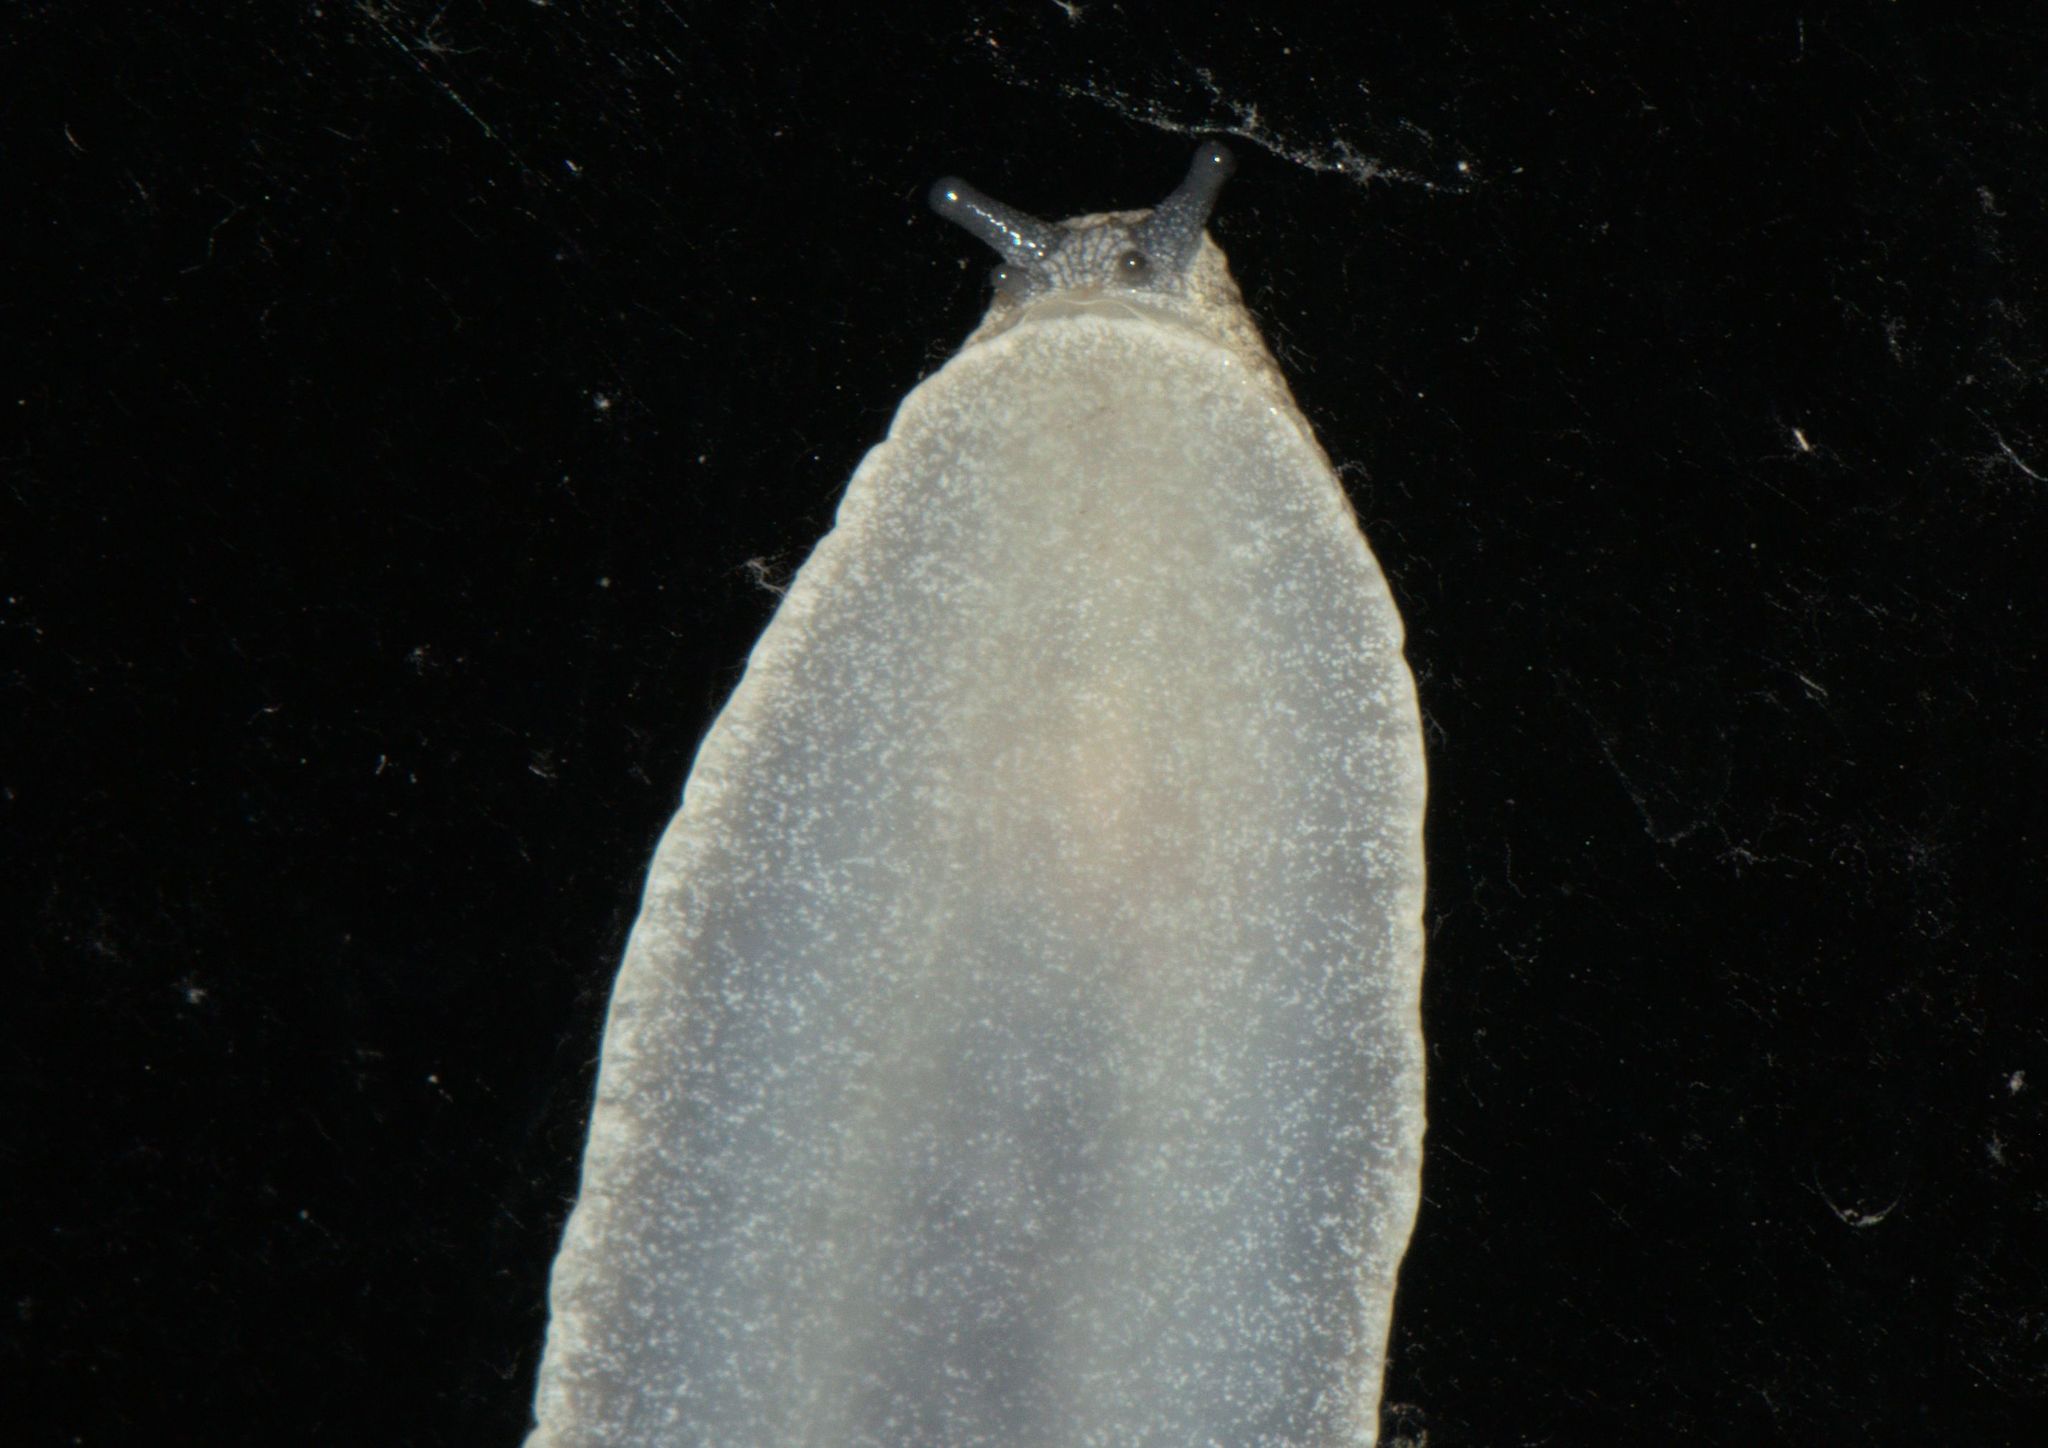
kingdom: Animalia
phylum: Mollusca
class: Gastropoda
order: Stylommatophora
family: Anadenidae
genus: Anadenus
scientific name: Anadenus altivagus
